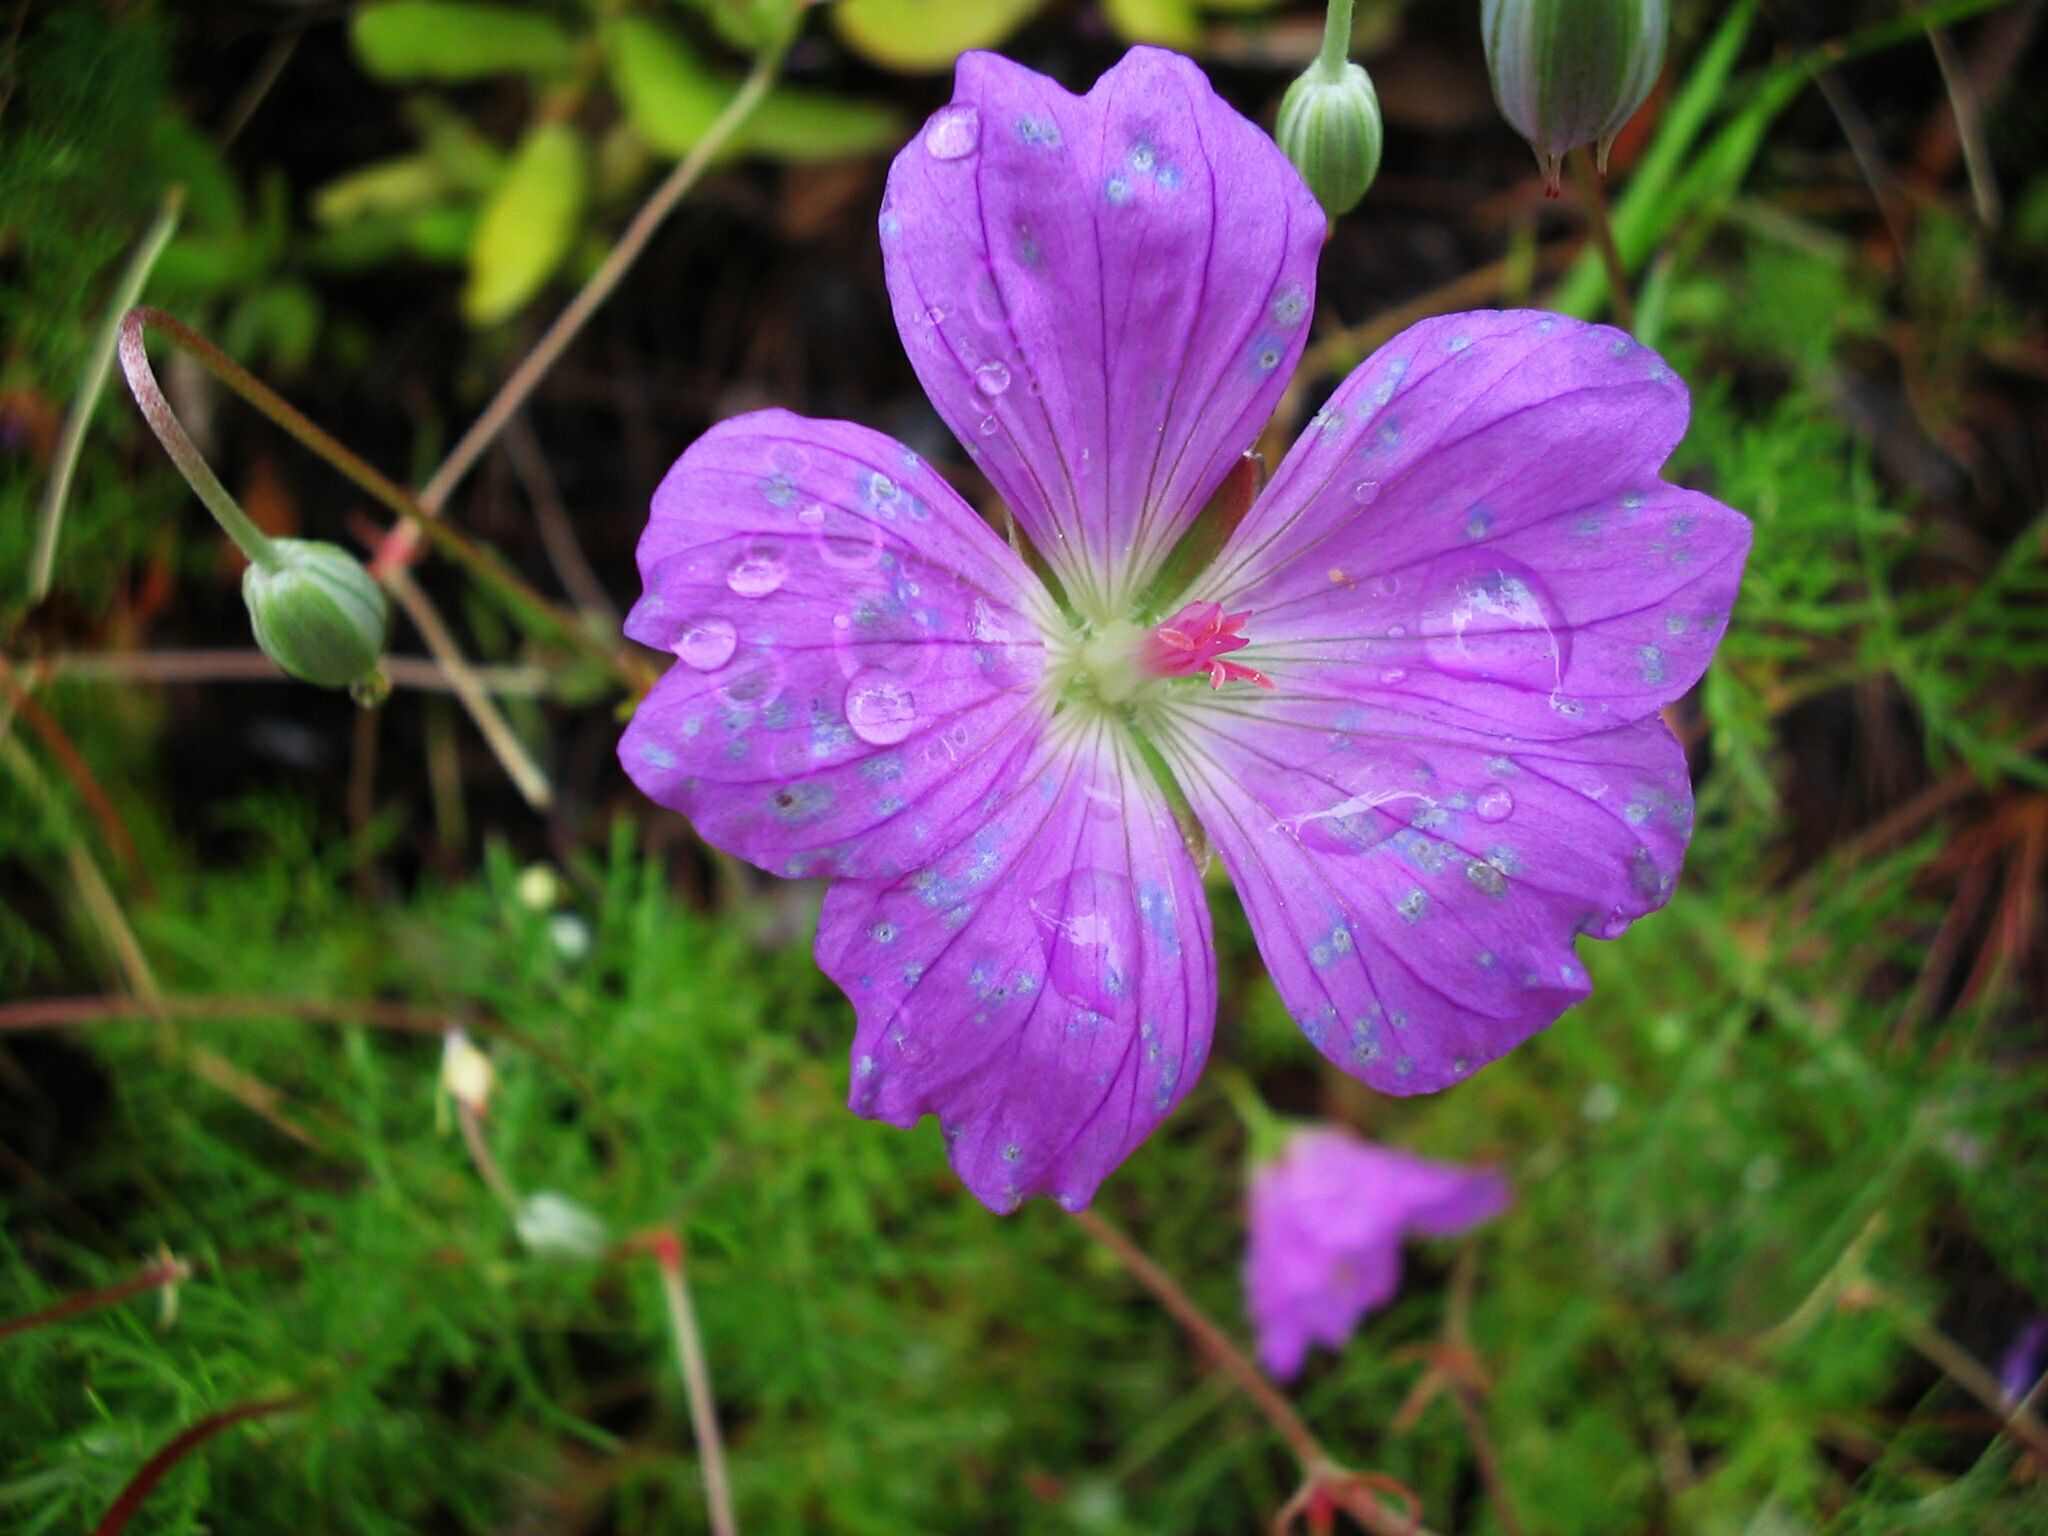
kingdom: Plantae
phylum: Tracheophyta
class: Magnoliopsida
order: Geraniales
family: Geraniaceae
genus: Geranium
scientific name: Geranium incanum
